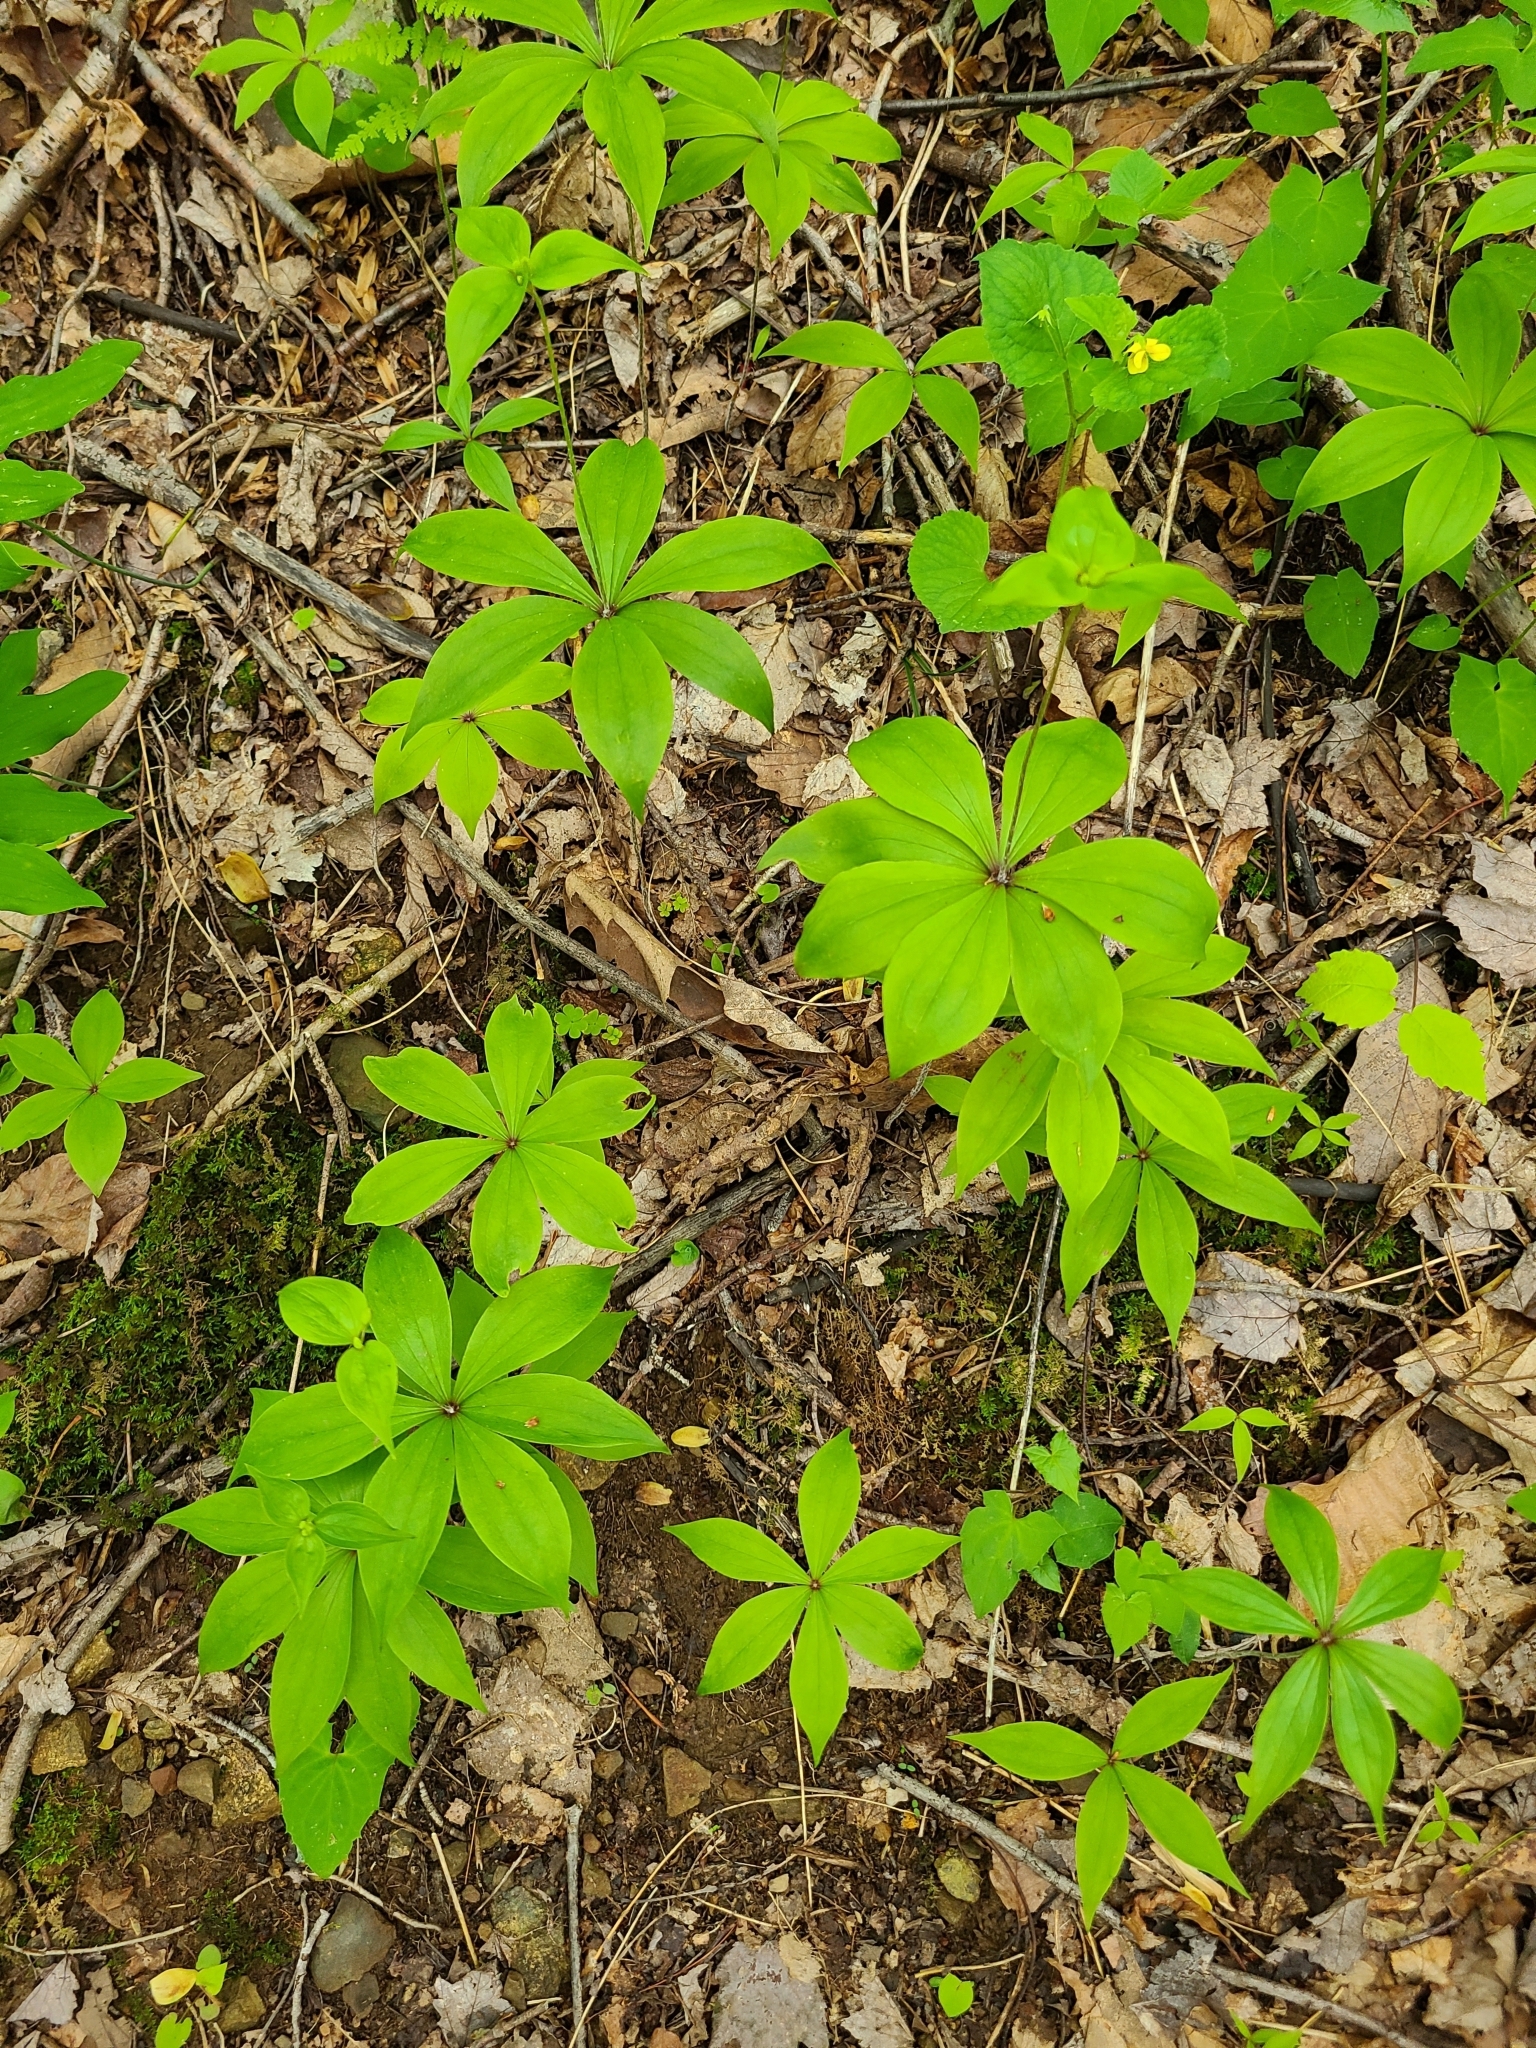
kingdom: Plantae
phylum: Tracheophyta
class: Liliopsida
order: Liliales
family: Liliaceae
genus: Medeola
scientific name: Medeola virginiana
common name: Indian cucumber-root
